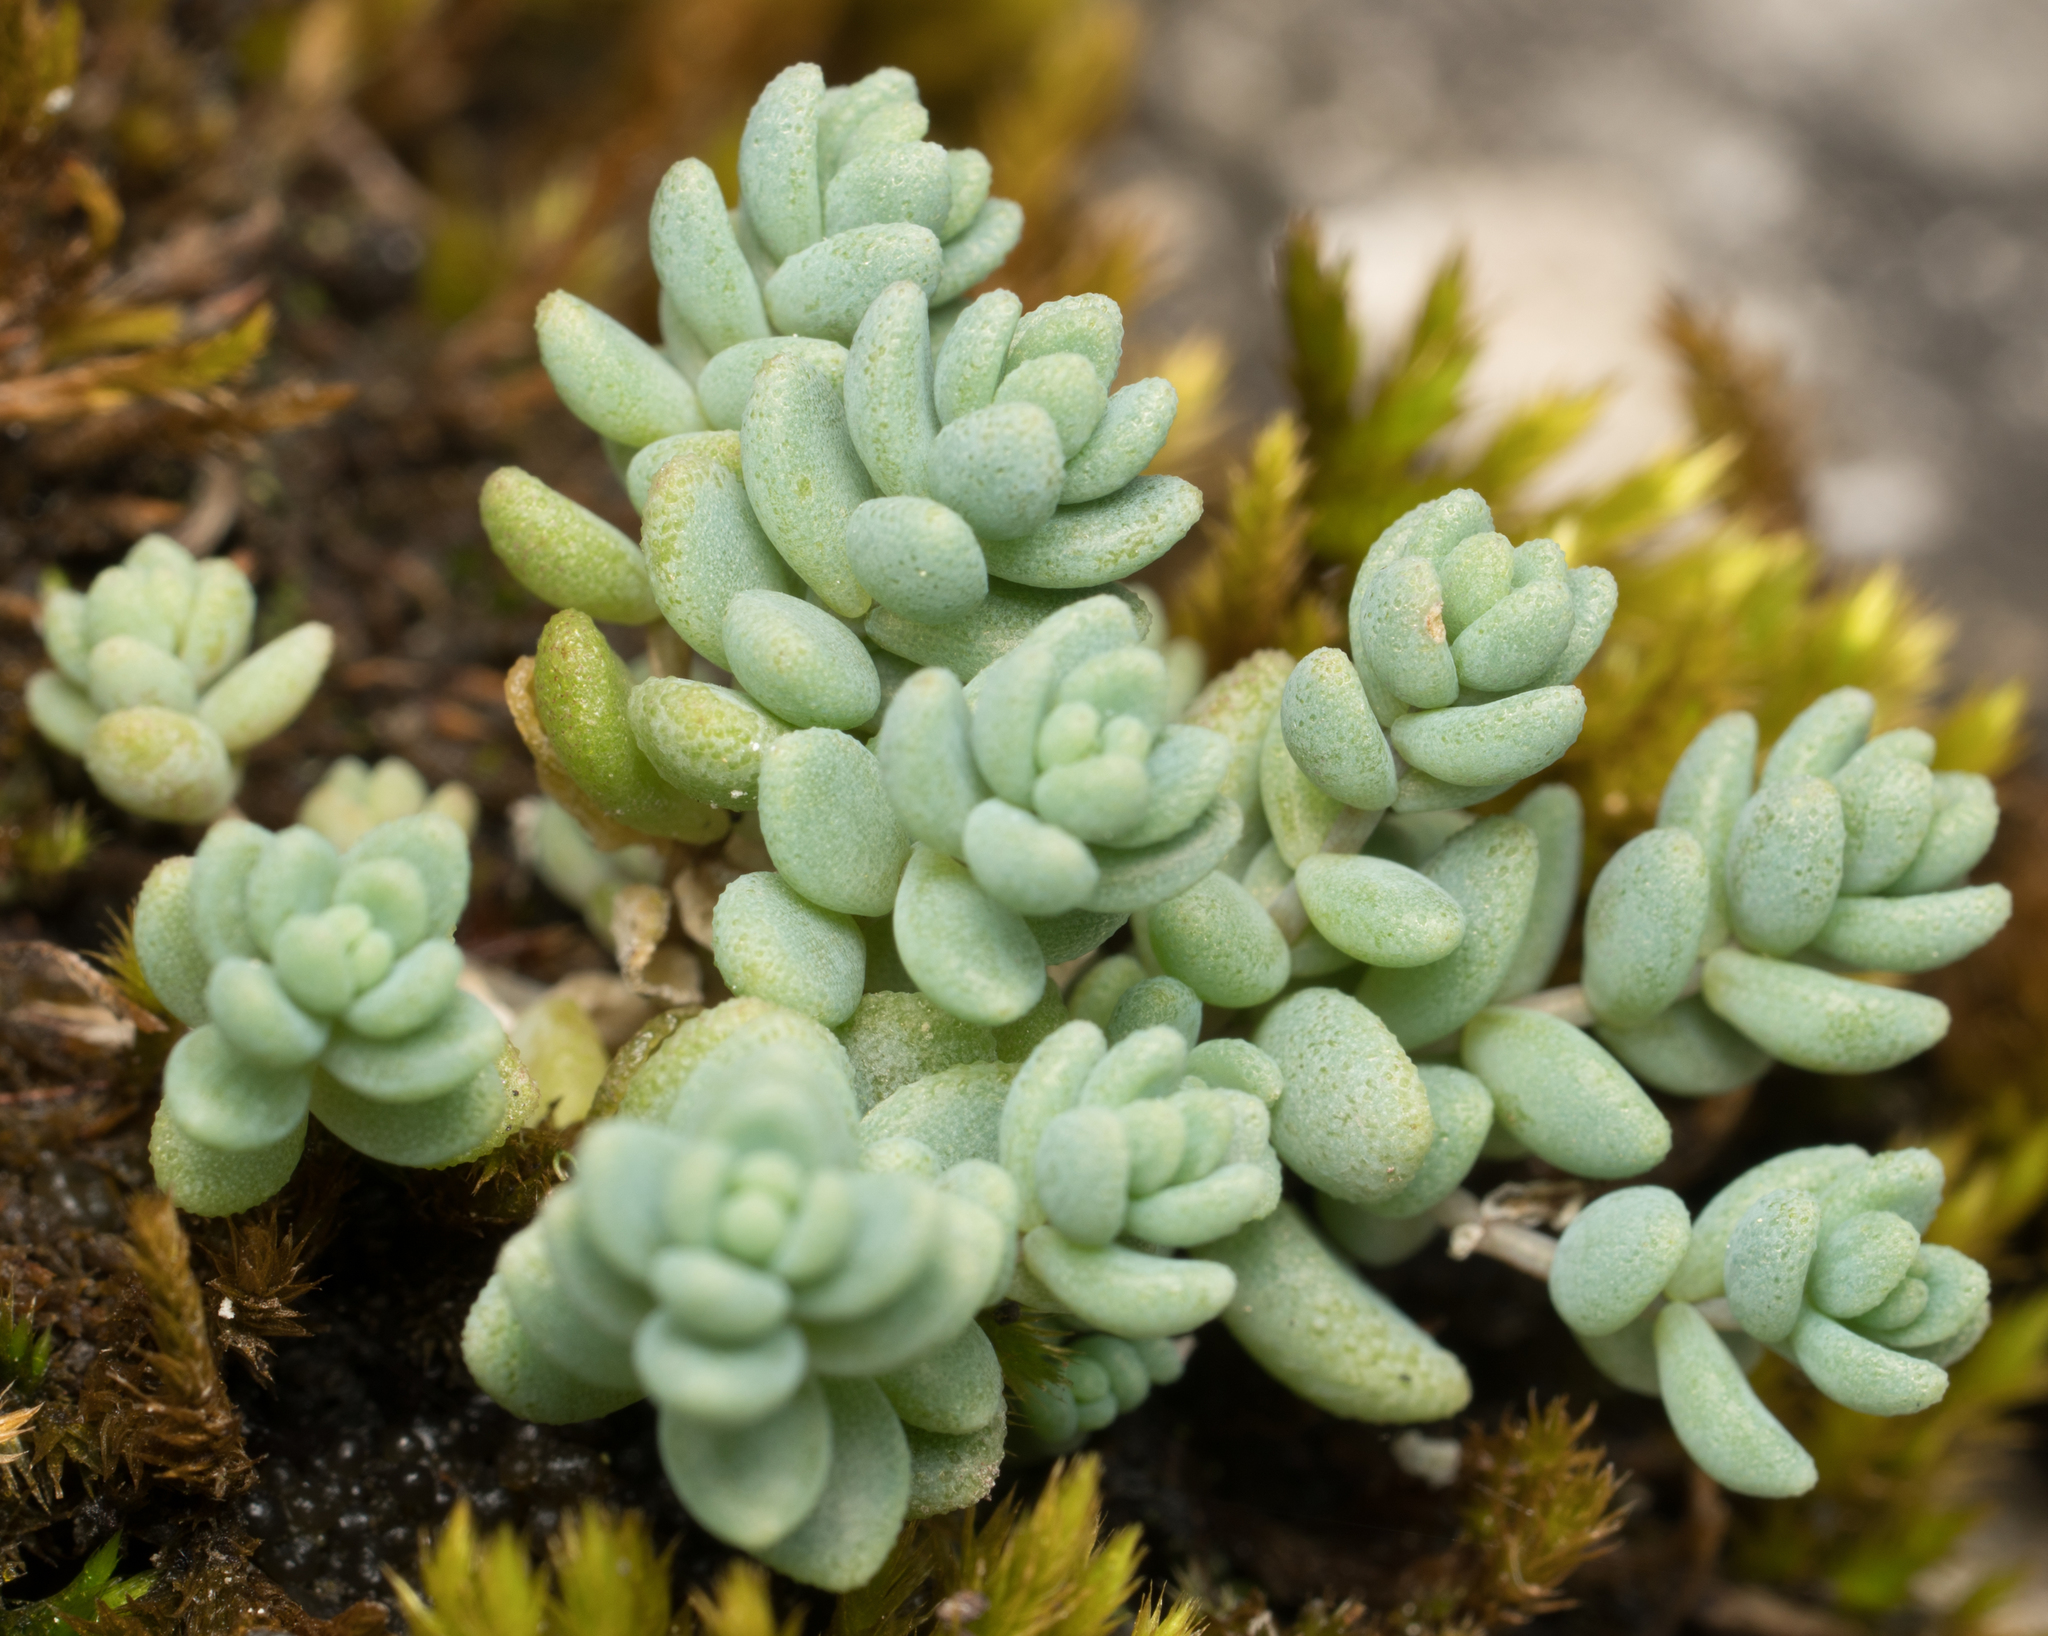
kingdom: Plantae
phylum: Tracheophyta
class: Magnoliopsida
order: Saxifragales
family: Crassulaceae
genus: Sedum
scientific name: Sedum dasyphyllum
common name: Thick-leaf stonecrop
